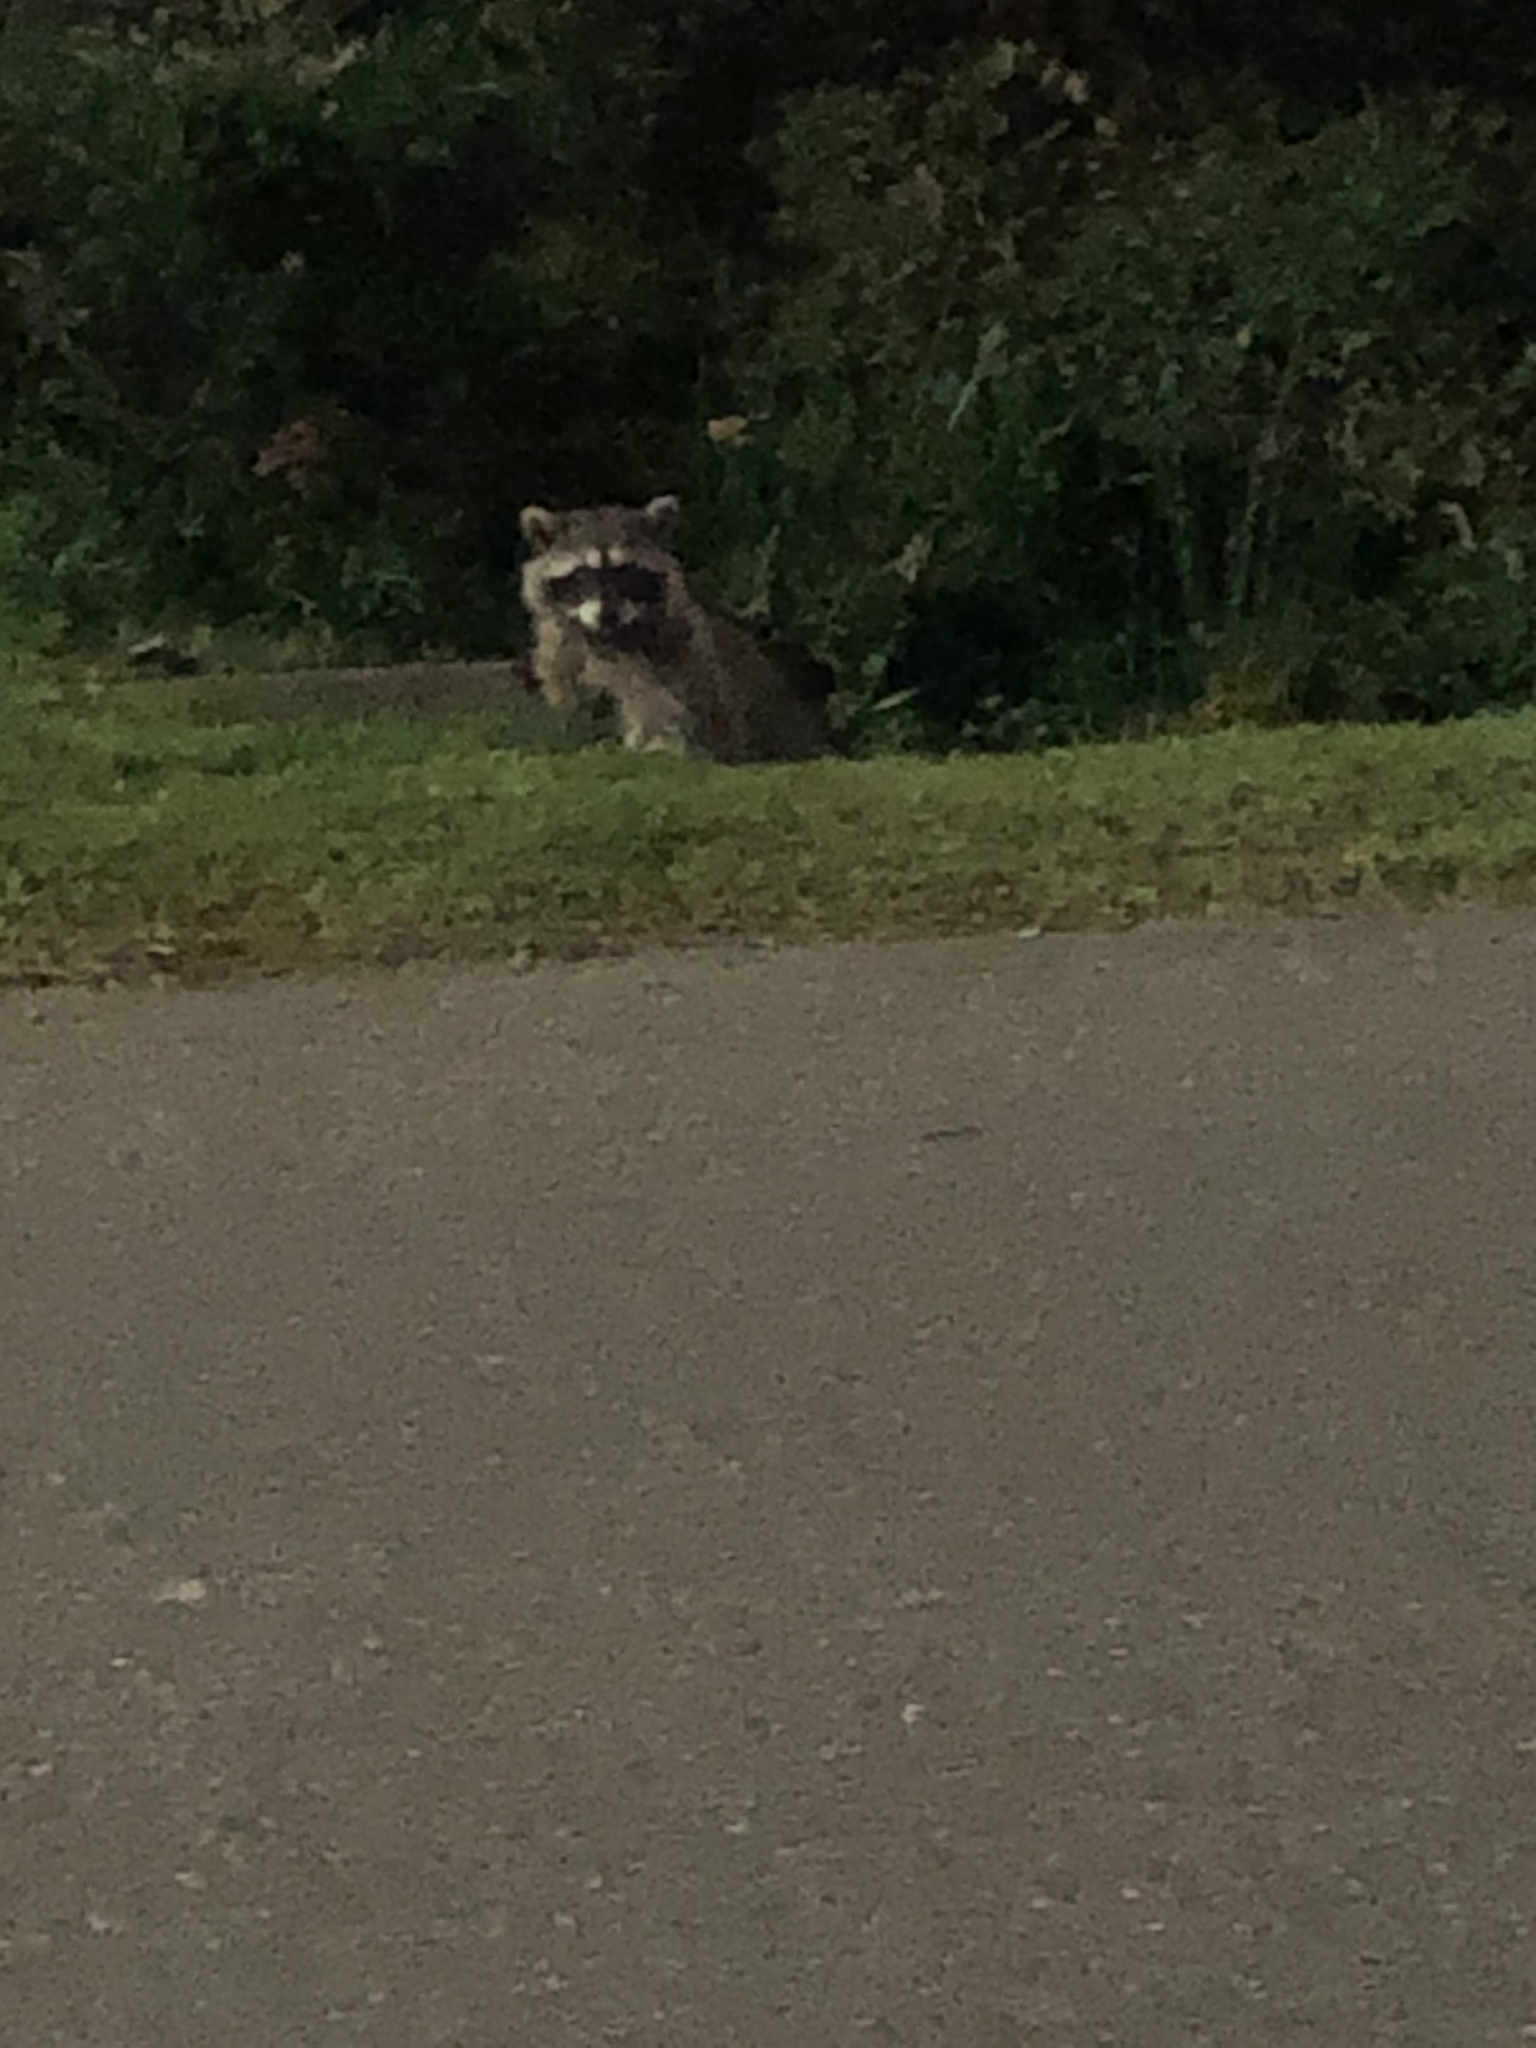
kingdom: Animalia
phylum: Chordata
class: Mammalia
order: Carnivora
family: Procyonidae
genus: Procyon
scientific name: Procyon lotor
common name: Raccoon
